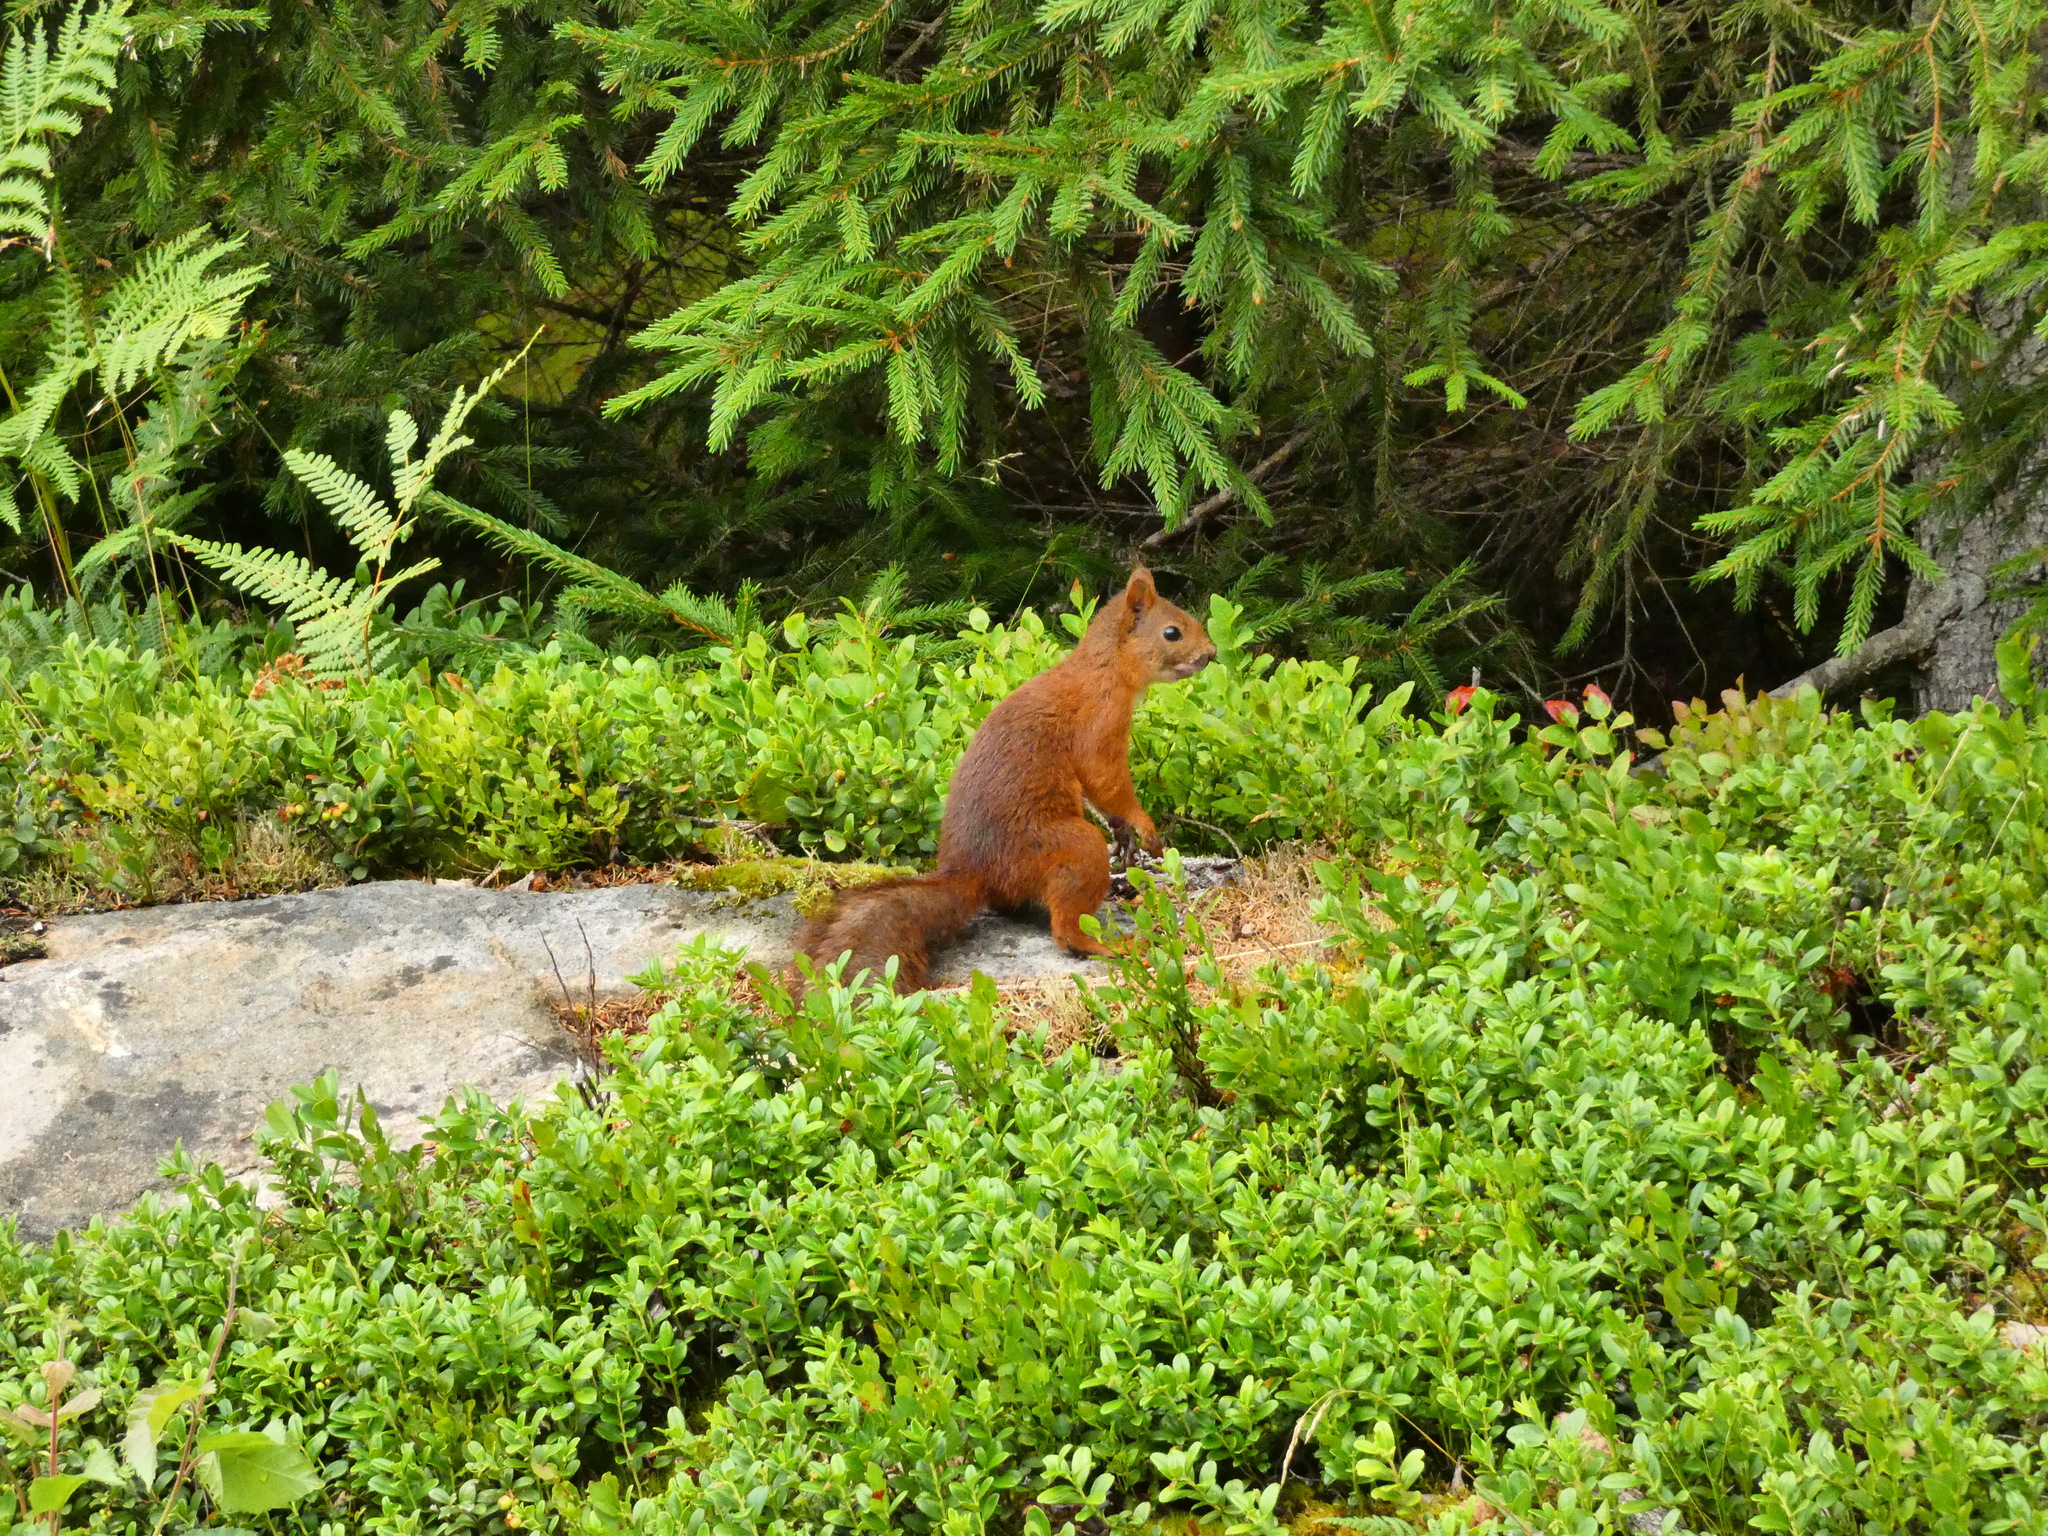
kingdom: Animalia
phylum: Chordata
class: Mammalia
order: Rodentia
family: Sciuridae
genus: Sciurus
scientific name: Sciurus vulgaris
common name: Eurasian red squirrel
